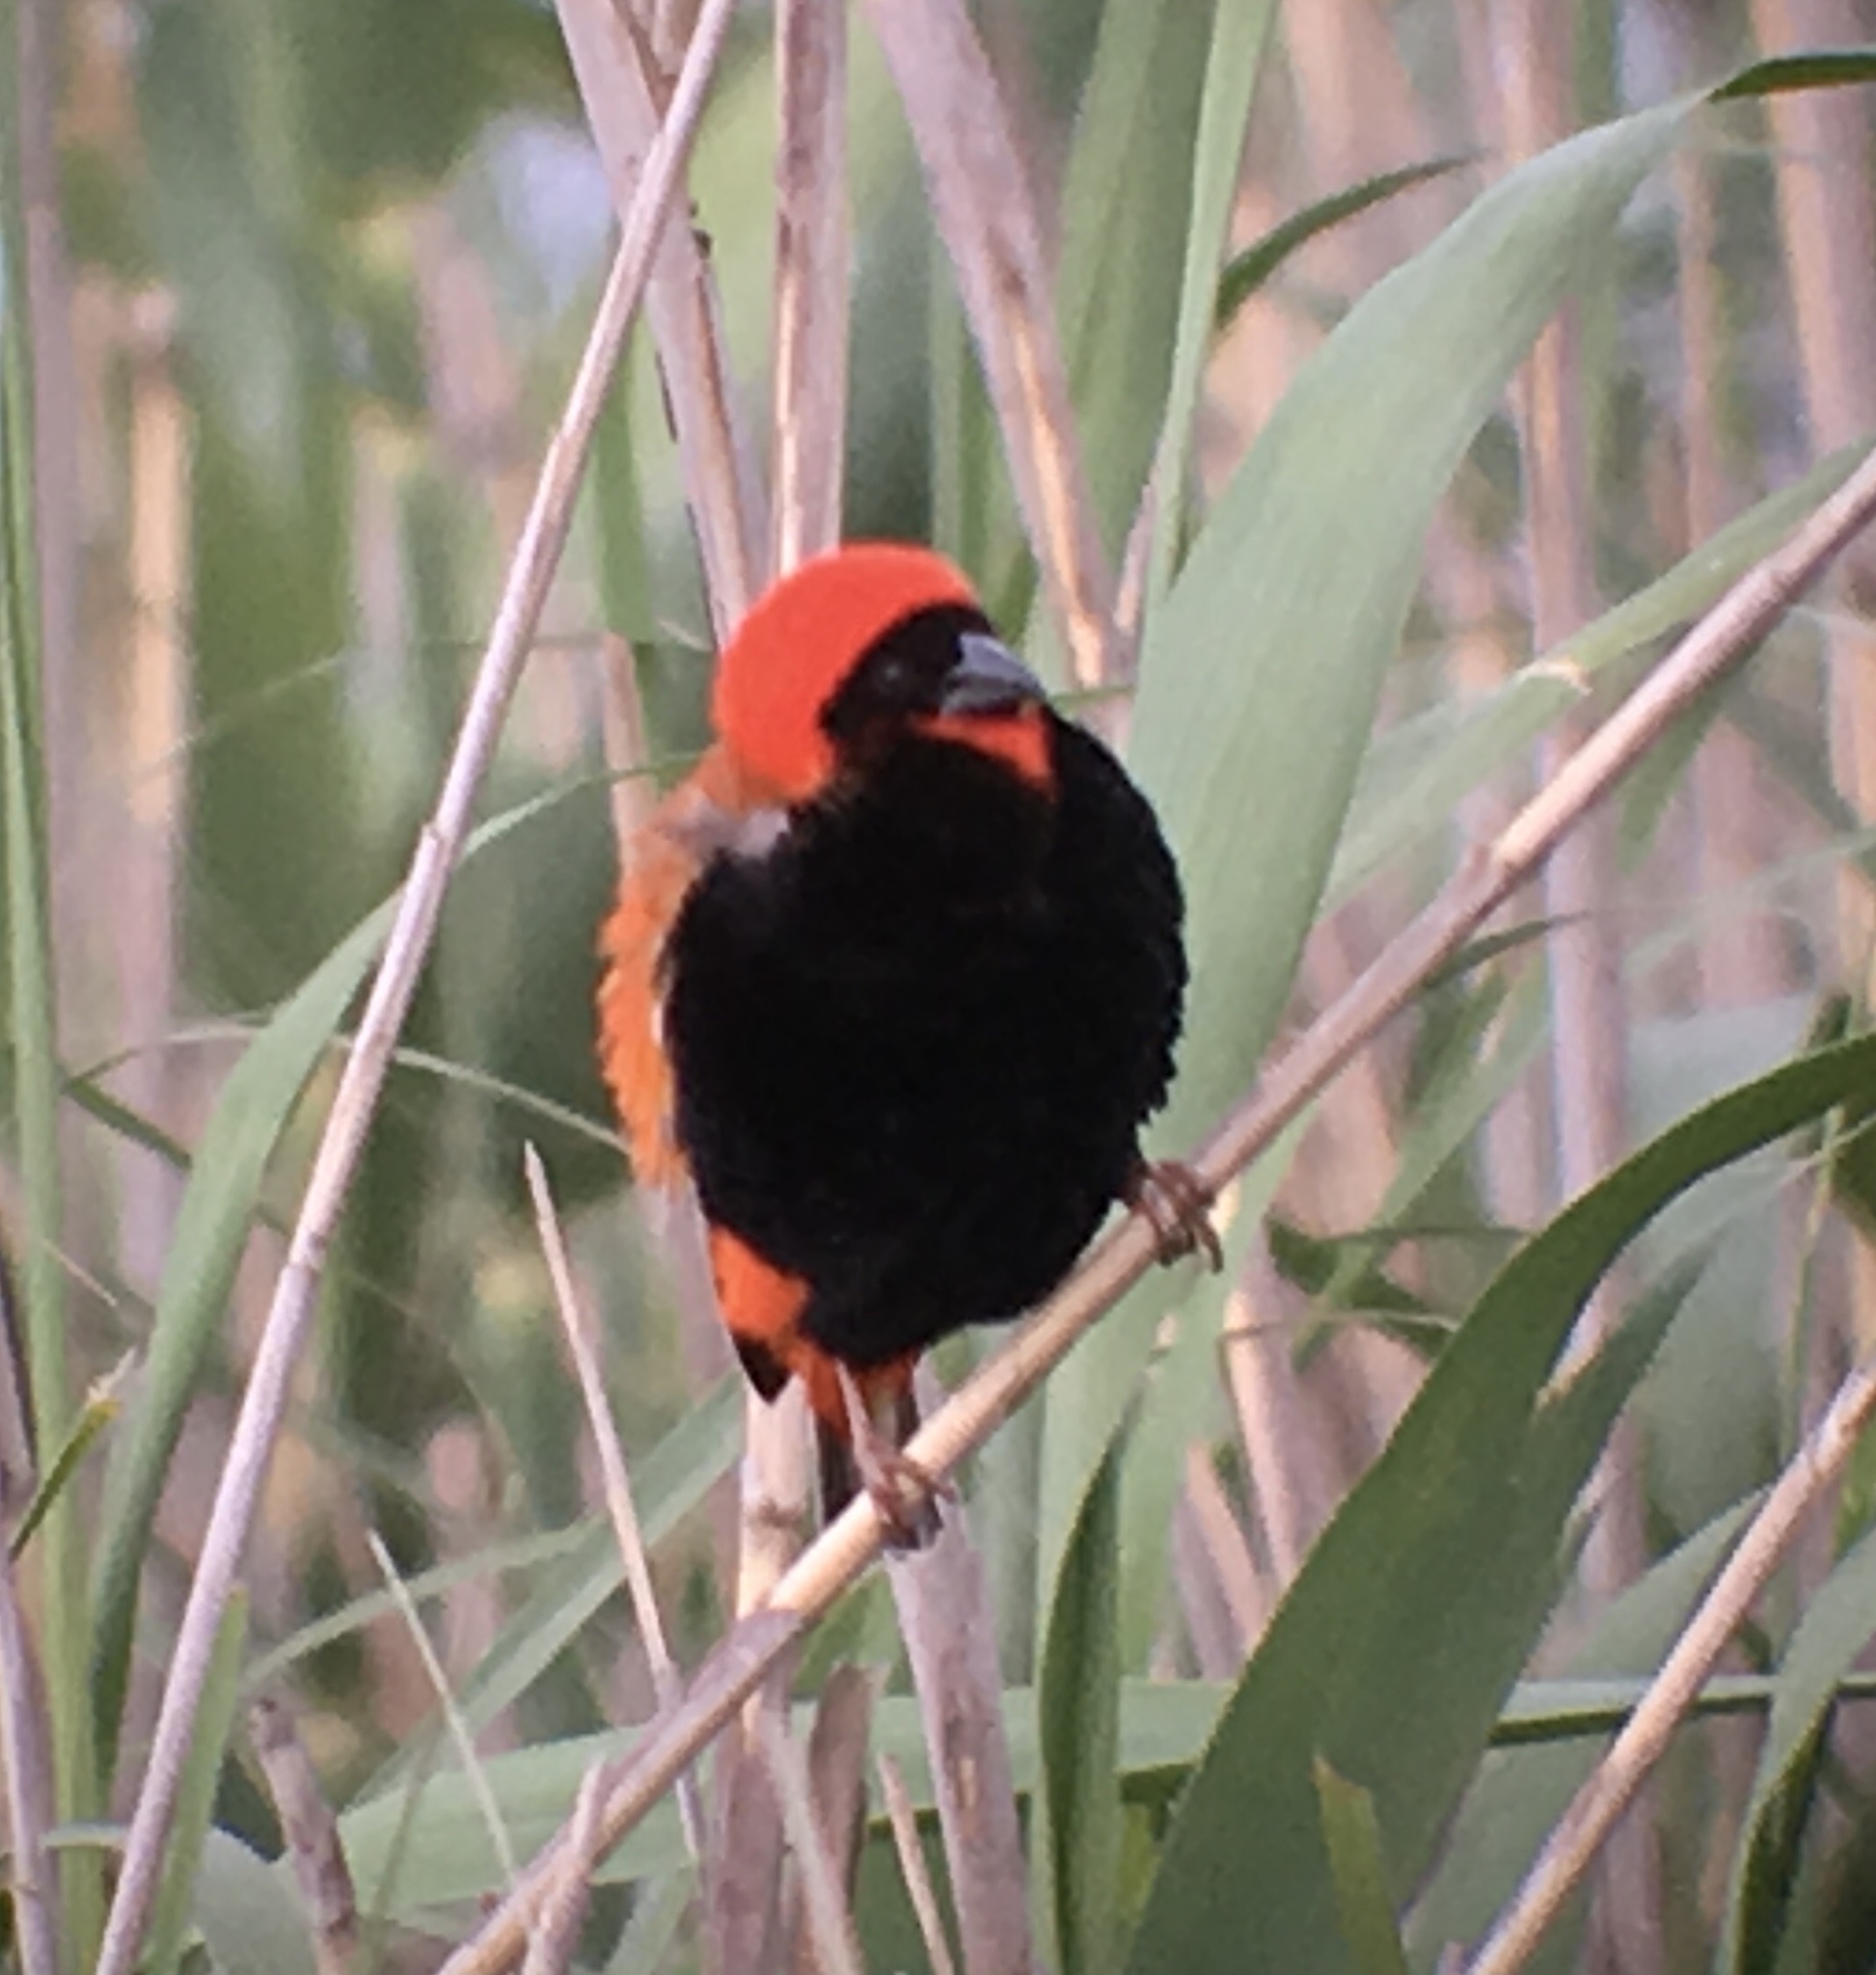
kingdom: Animalia
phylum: Chordata
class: Aves
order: Passeriformes
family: Ploceidae
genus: Euplectes
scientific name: Euplectes orix
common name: Southern red bishop
